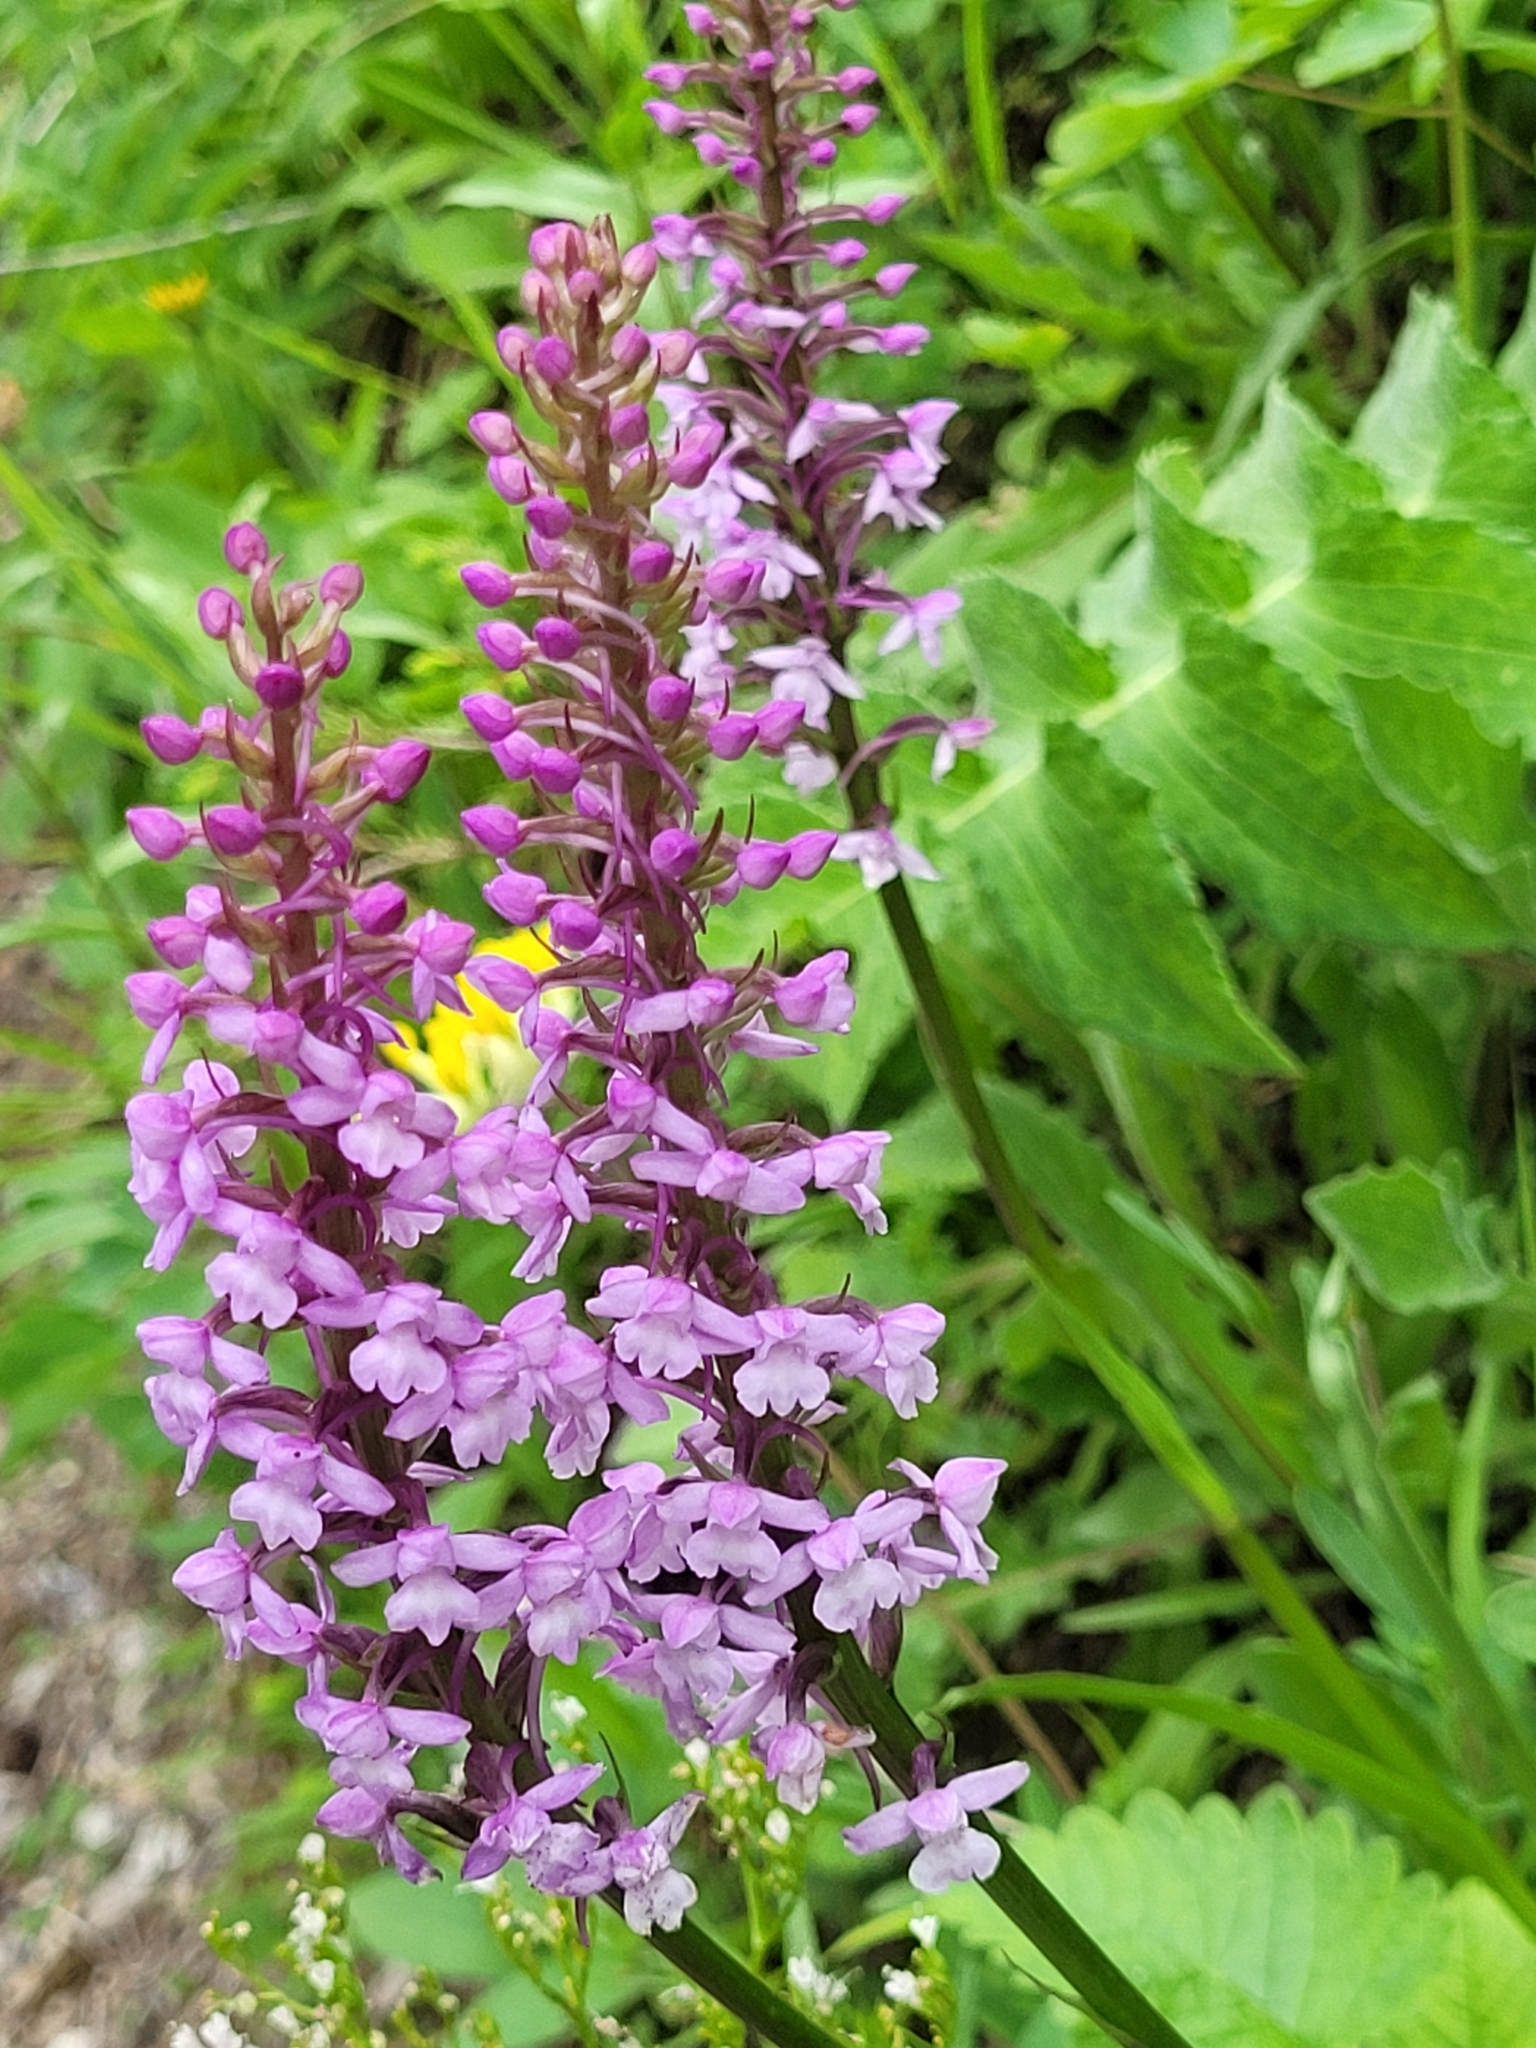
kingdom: Plantae
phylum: Tracheophyta
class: Liliopsida
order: Asparagales
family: Orchidaceae
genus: Gymnadenia
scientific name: Gymnadenia conopsea
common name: Fragrant orchid
